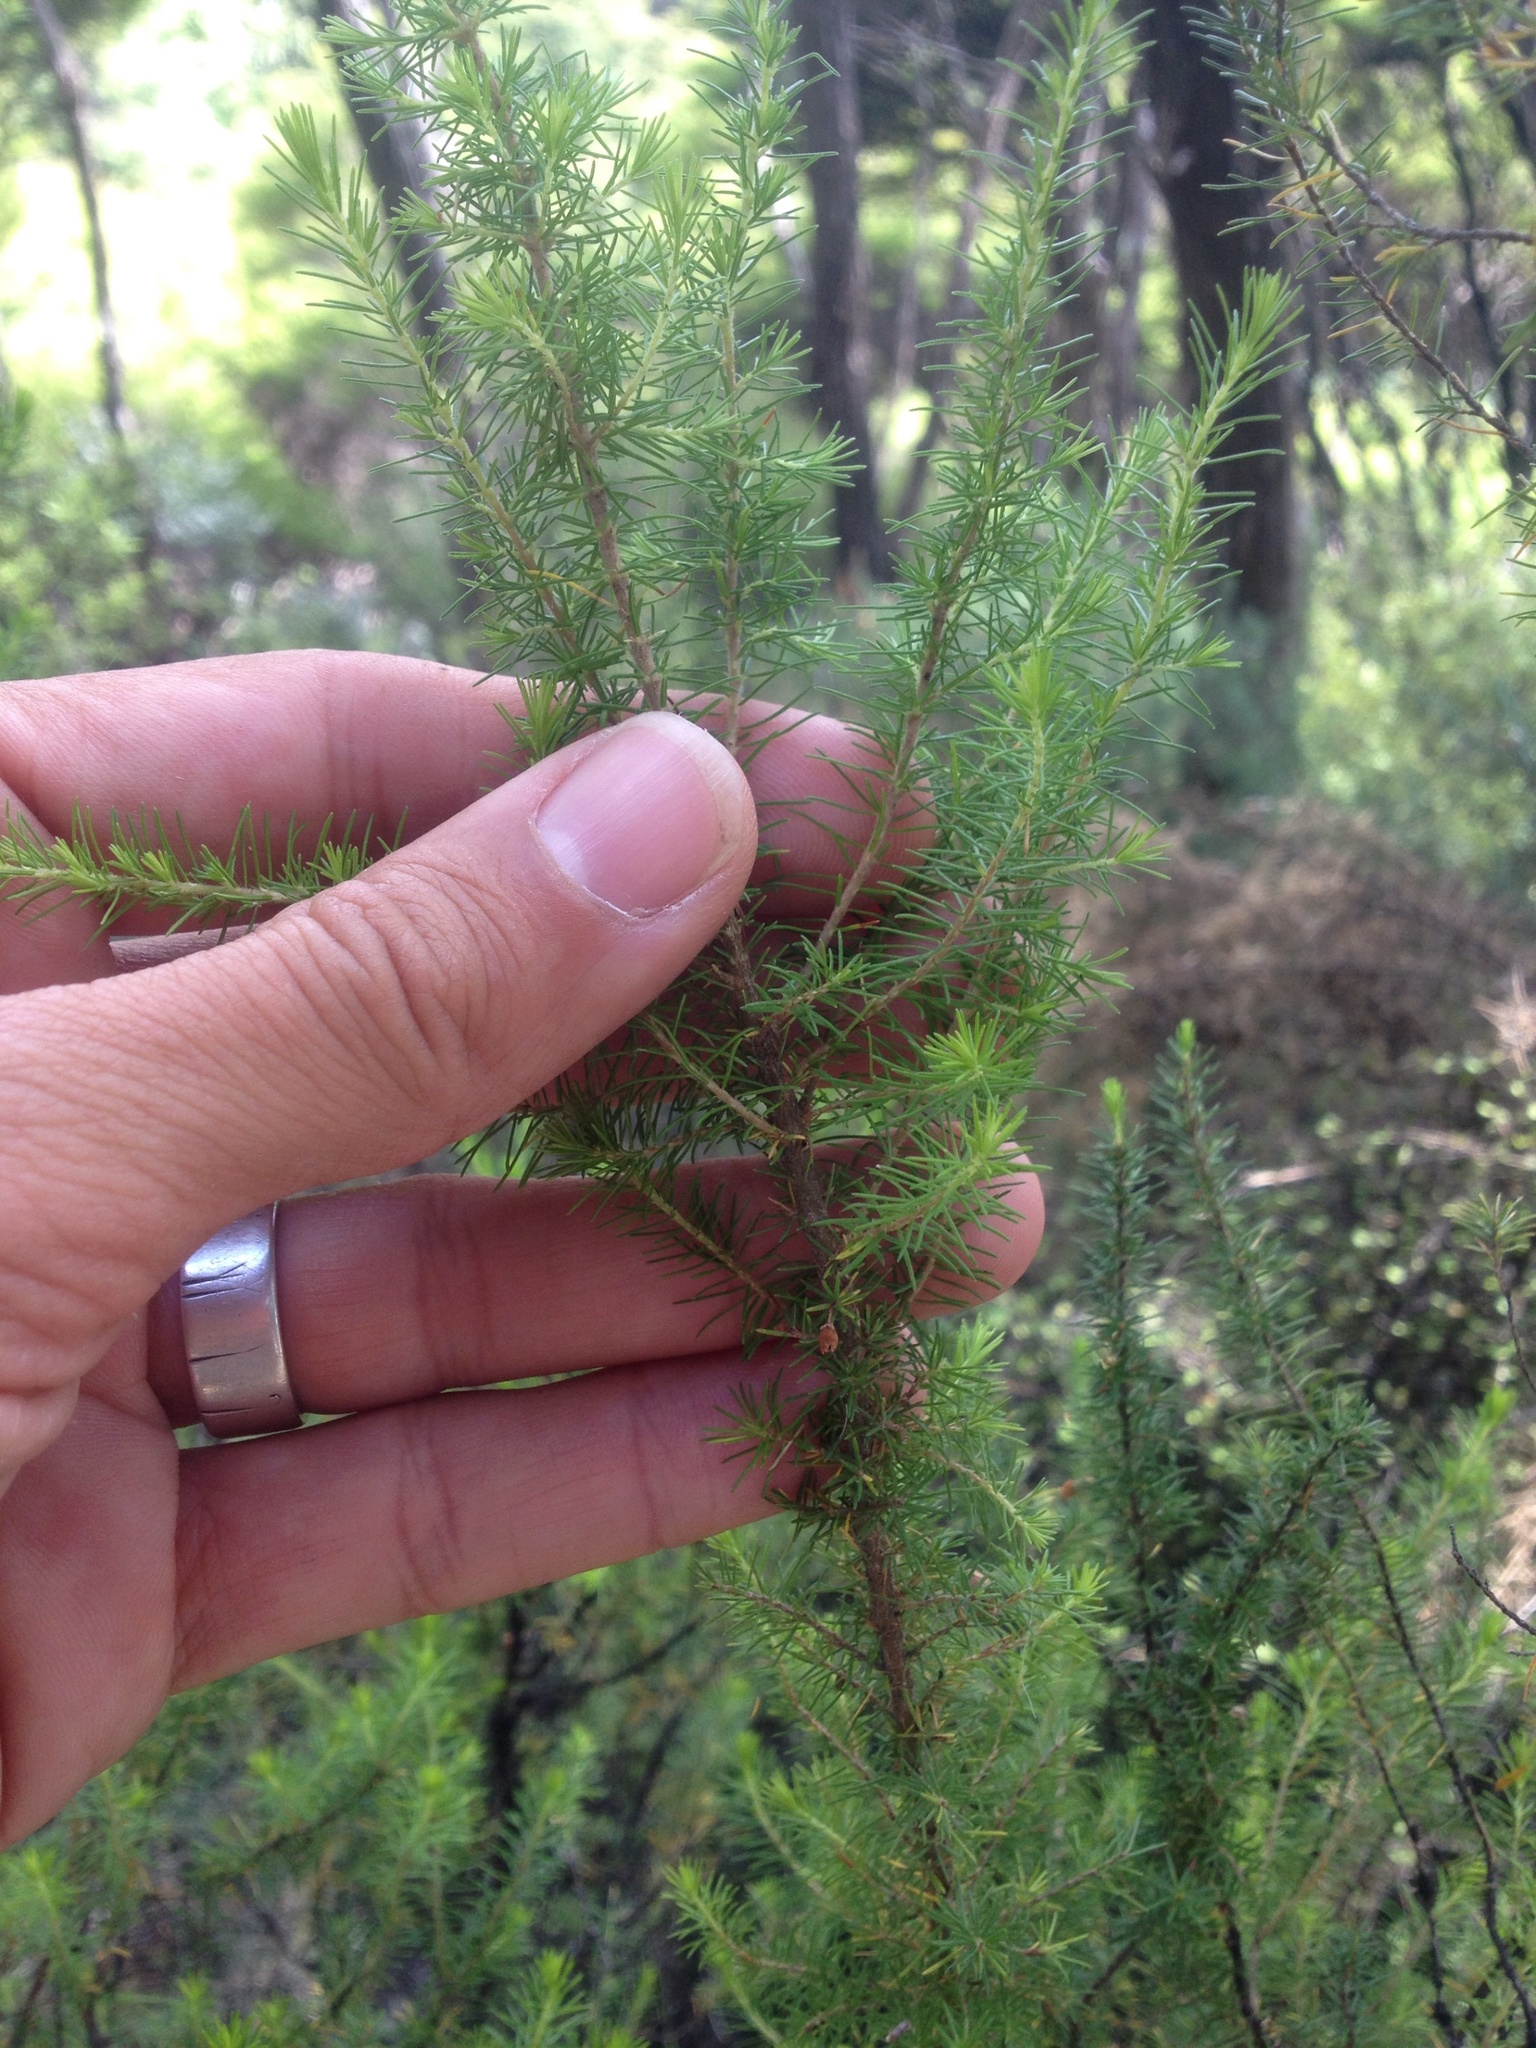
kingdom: Plantae
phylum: Tracheophyta
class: Magnoliopsida
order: Ericales
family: Ericaceae
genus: Erica
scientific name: Erica lusitanica
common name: Spanish heath
